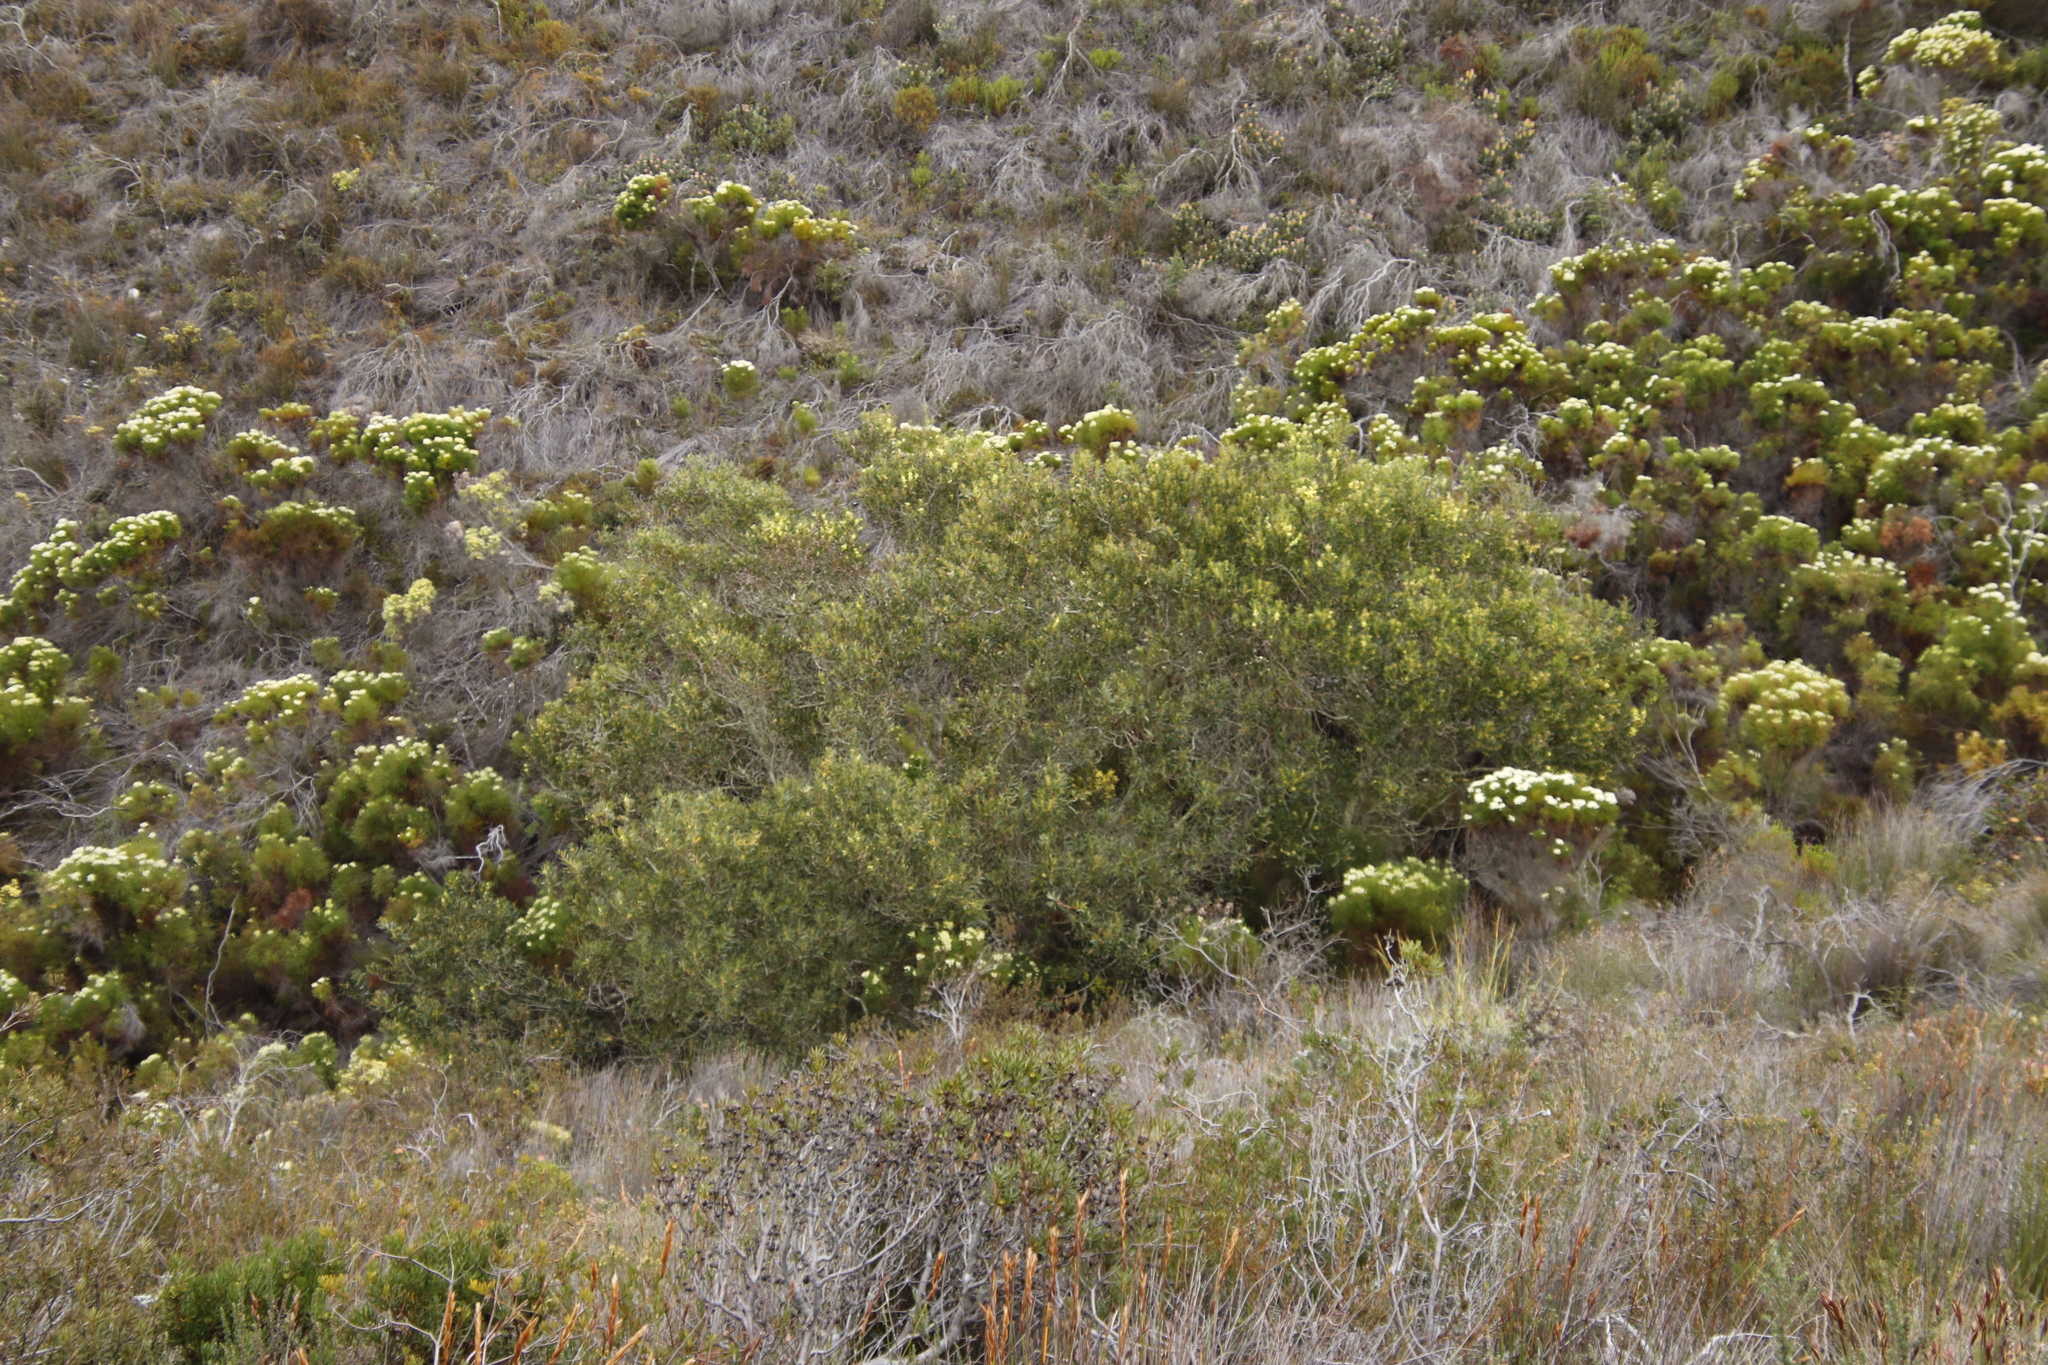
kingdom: Plantae
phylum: Tracheophyta
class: Magnoliopsida
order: Lamiales
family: Oleaceae
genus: Olea
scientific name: Olea europaea
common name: Olive
